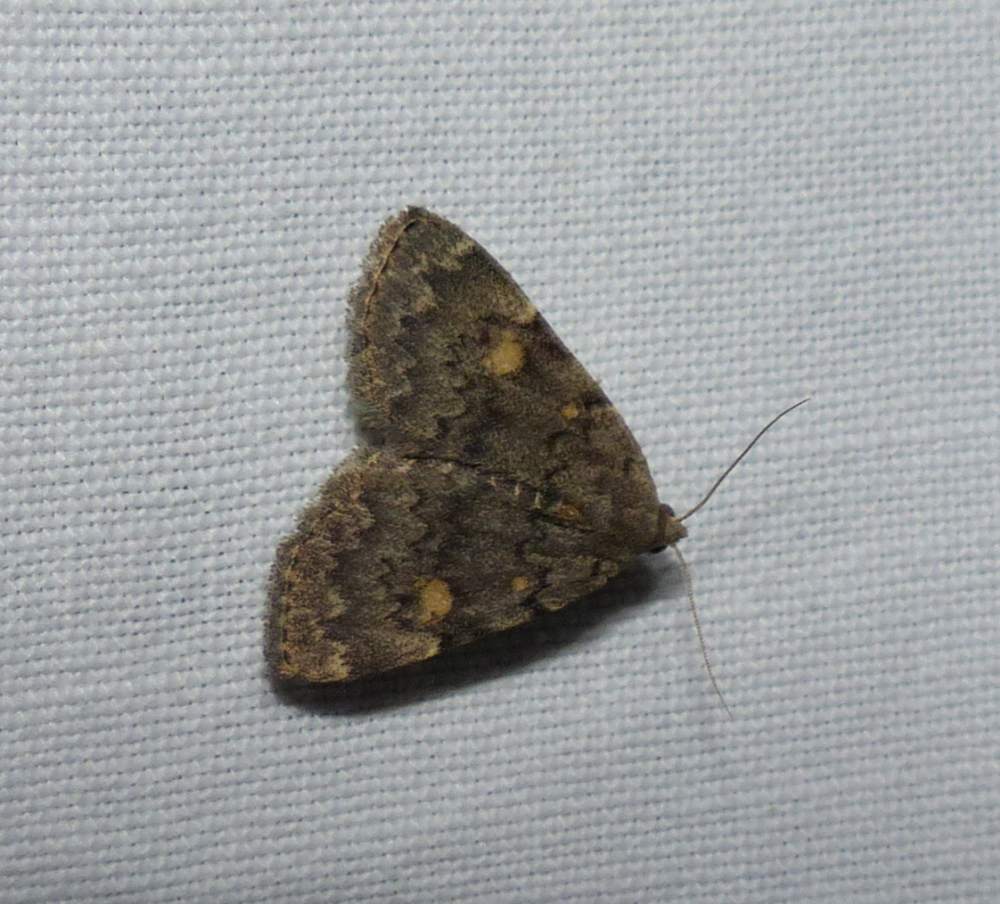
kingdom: Animalia
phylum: Arthropoda
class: Insecta
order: Lepidoptera
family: Erebidae
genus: Idia
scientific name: Idia aemula
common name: Common idia moth
